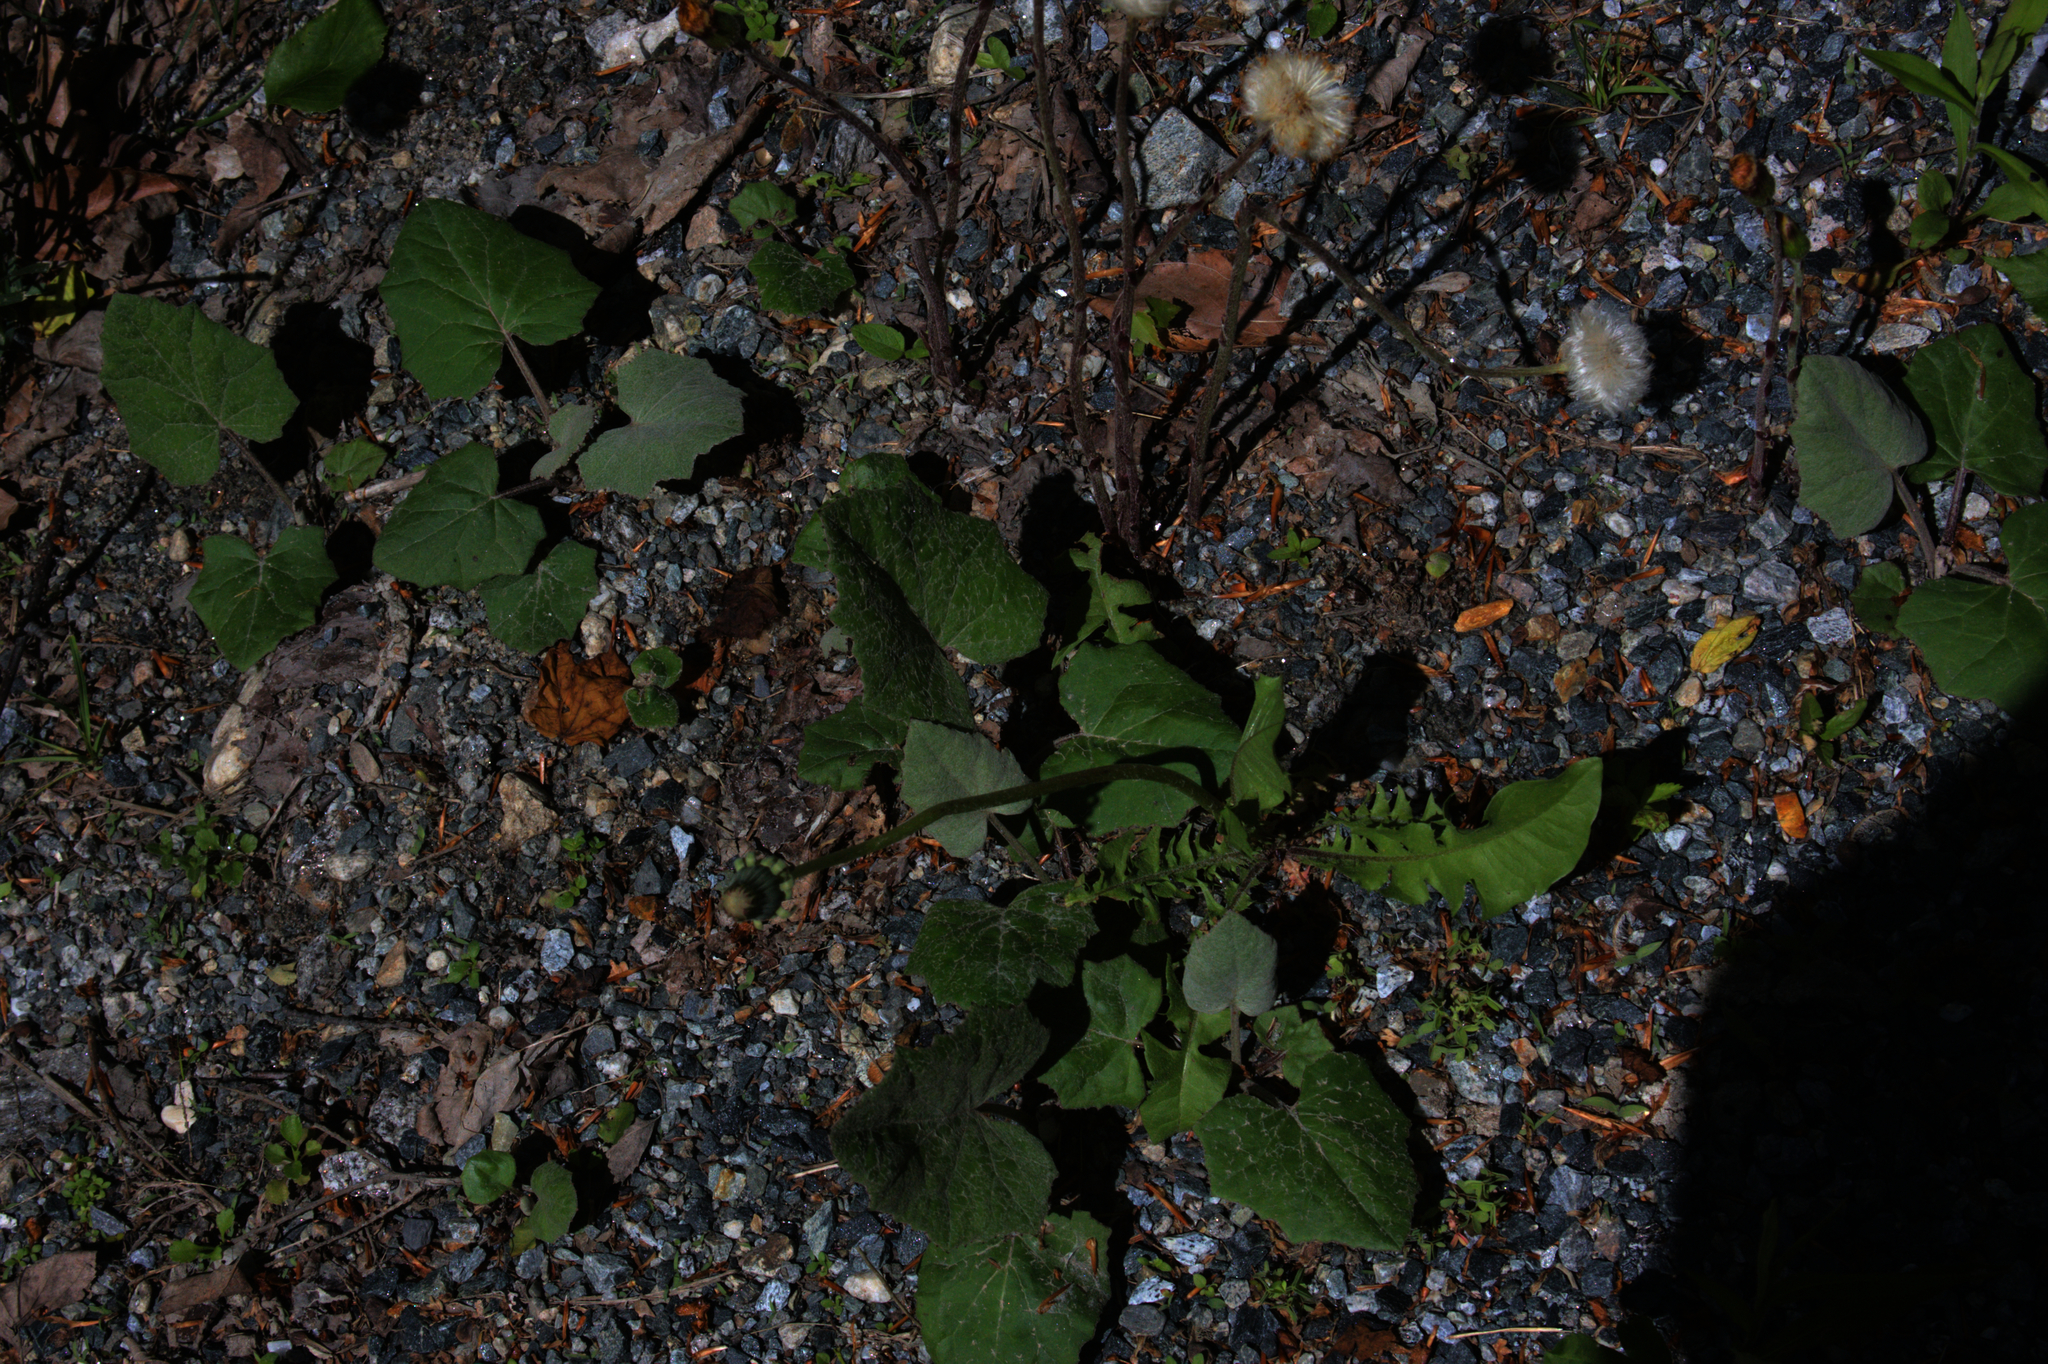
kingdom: Plantae
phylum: Tracheophyta
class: Magnoliopsida
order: Asterales
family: Asteraceae
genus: Tussilago
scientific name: Tussilago farfara
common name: Coltsfoot
